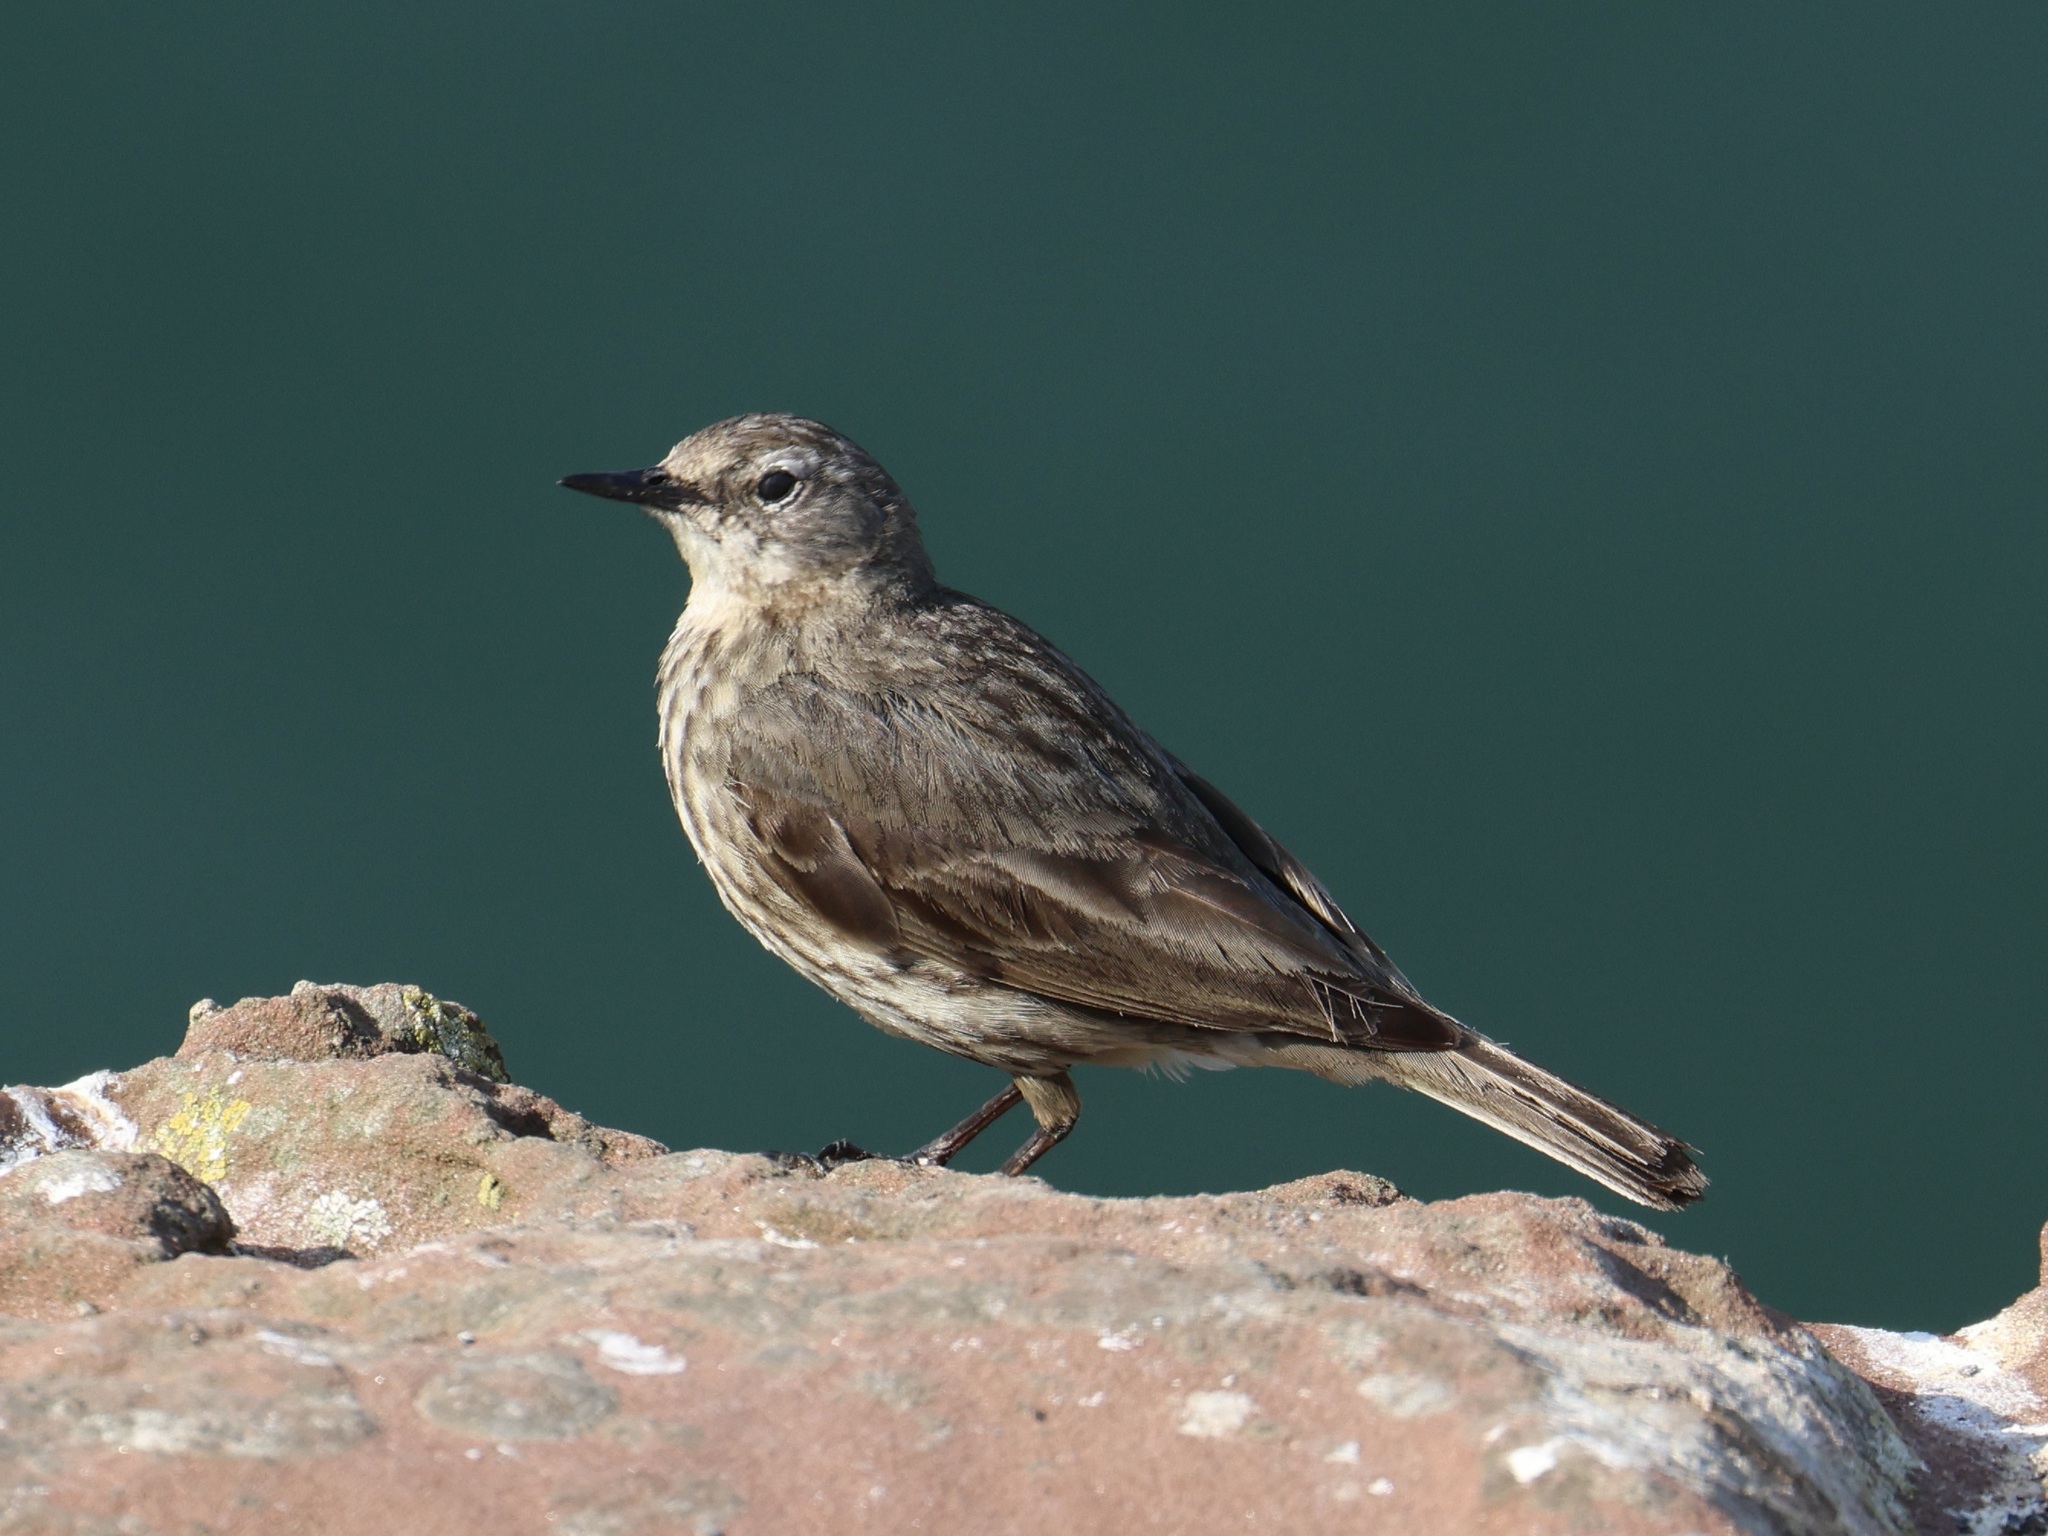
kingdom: Animalia
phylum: Chordata
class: Aves
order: Passeriformes
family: Motacillidae
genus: Anthus
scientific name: Anthus petrosus
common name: Eurasian rock pipit
